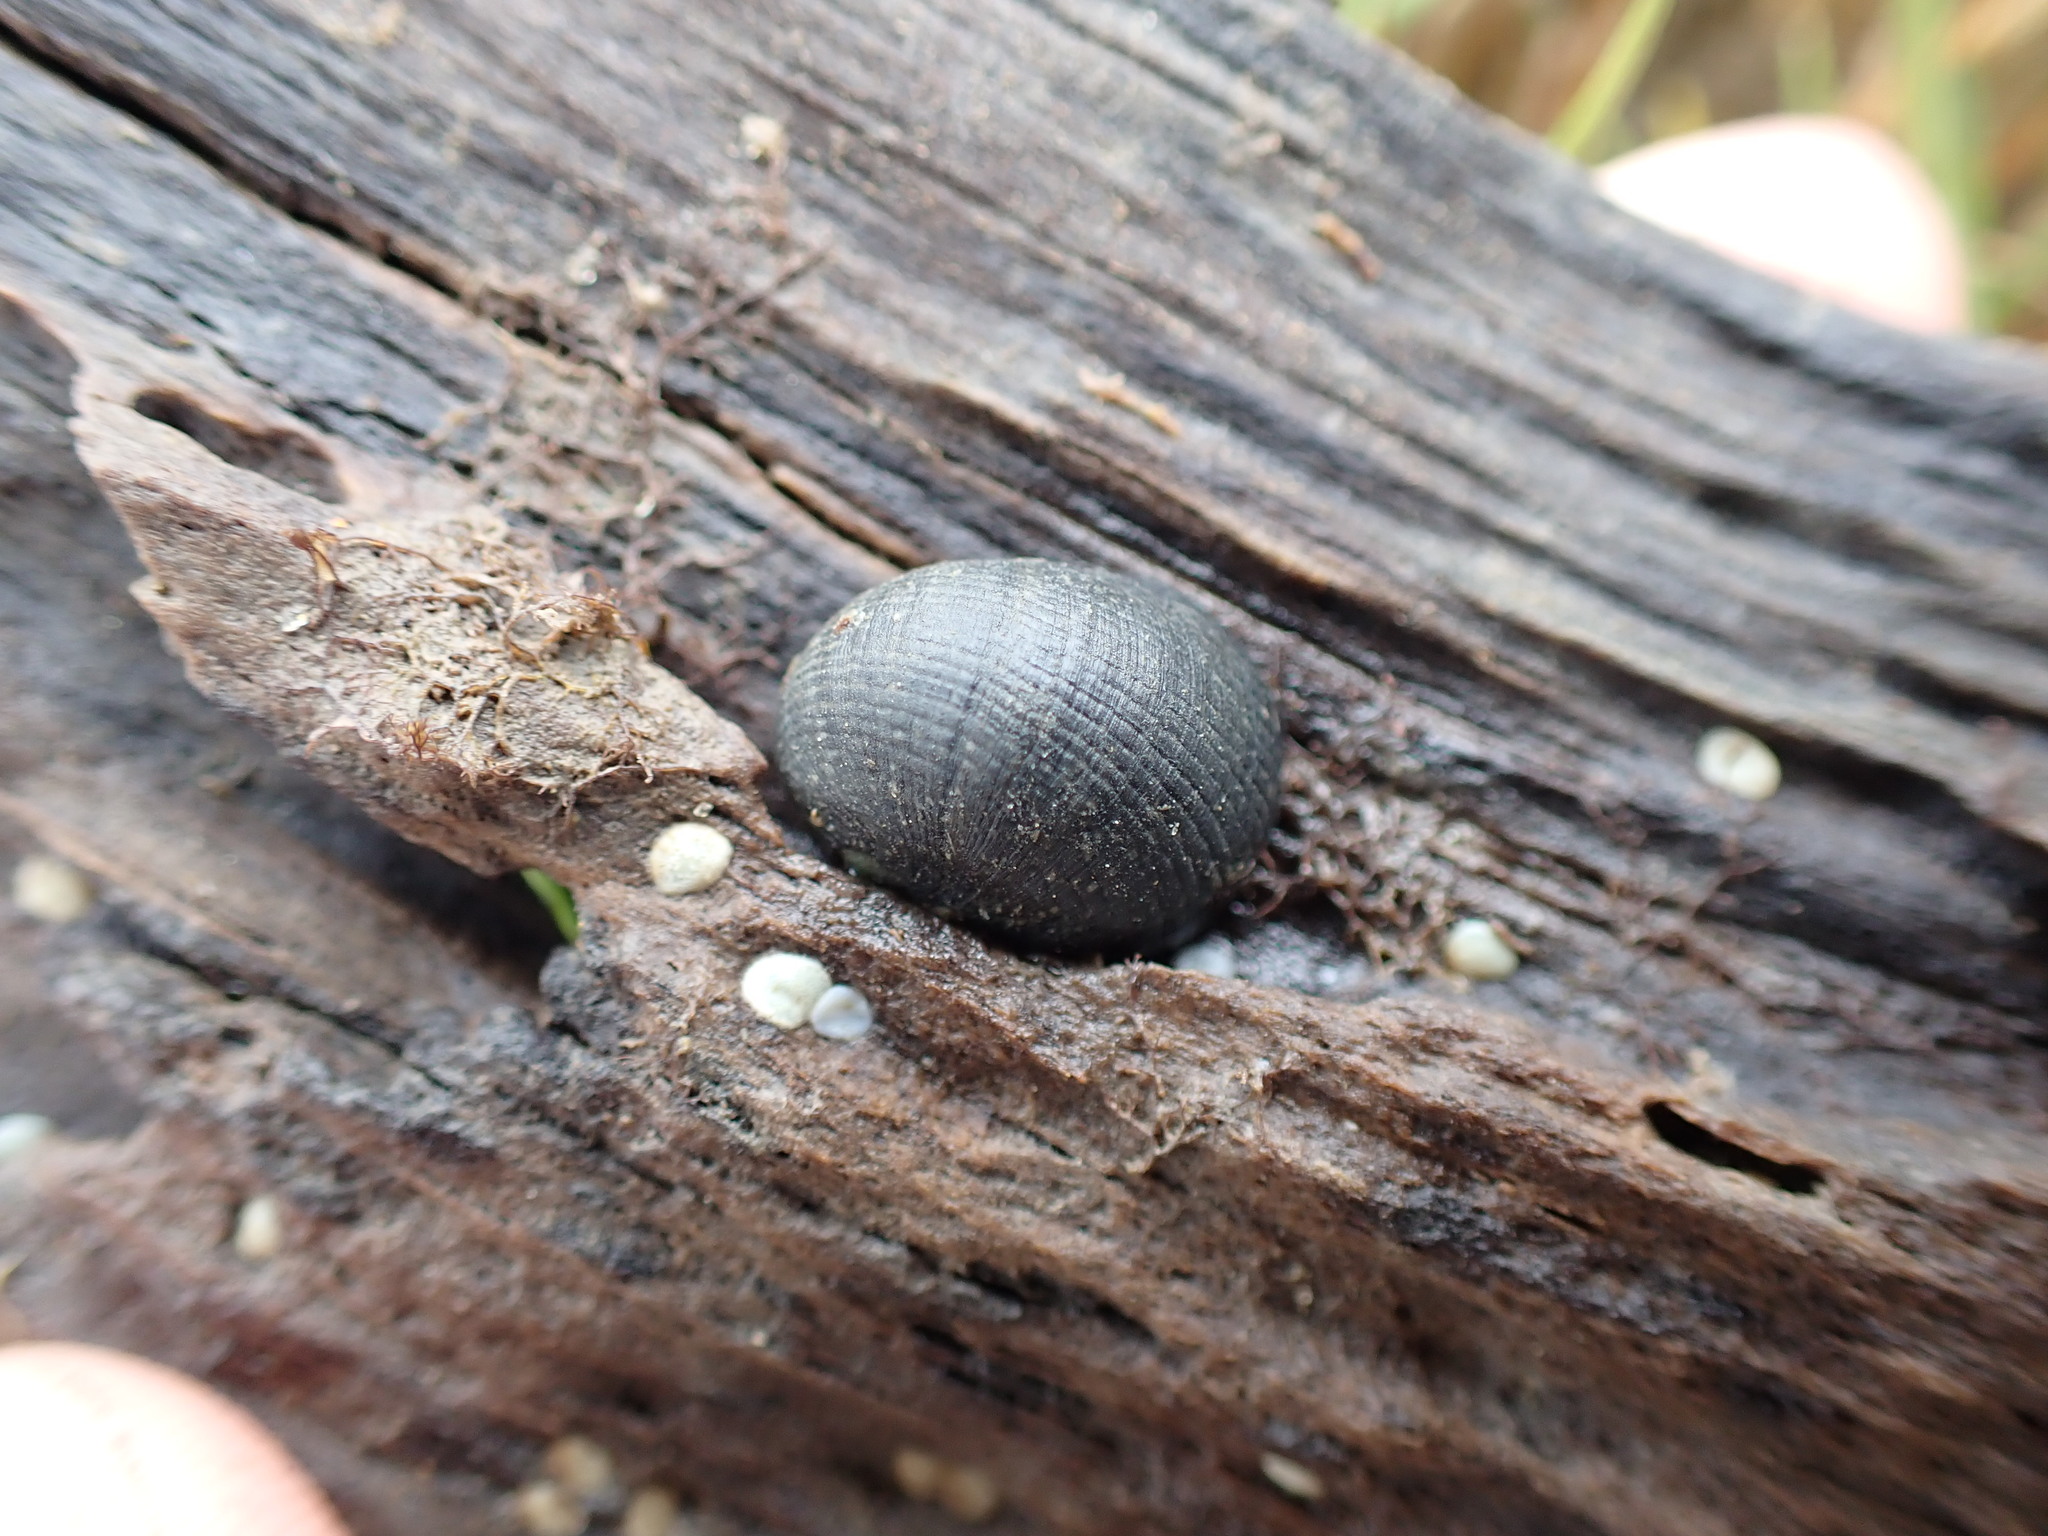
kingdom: Animalia
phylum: Mollusca
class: Gastropoda
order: Cycloneritida
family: Neritidae
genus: Nerita
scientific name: Nerita melanotragus
